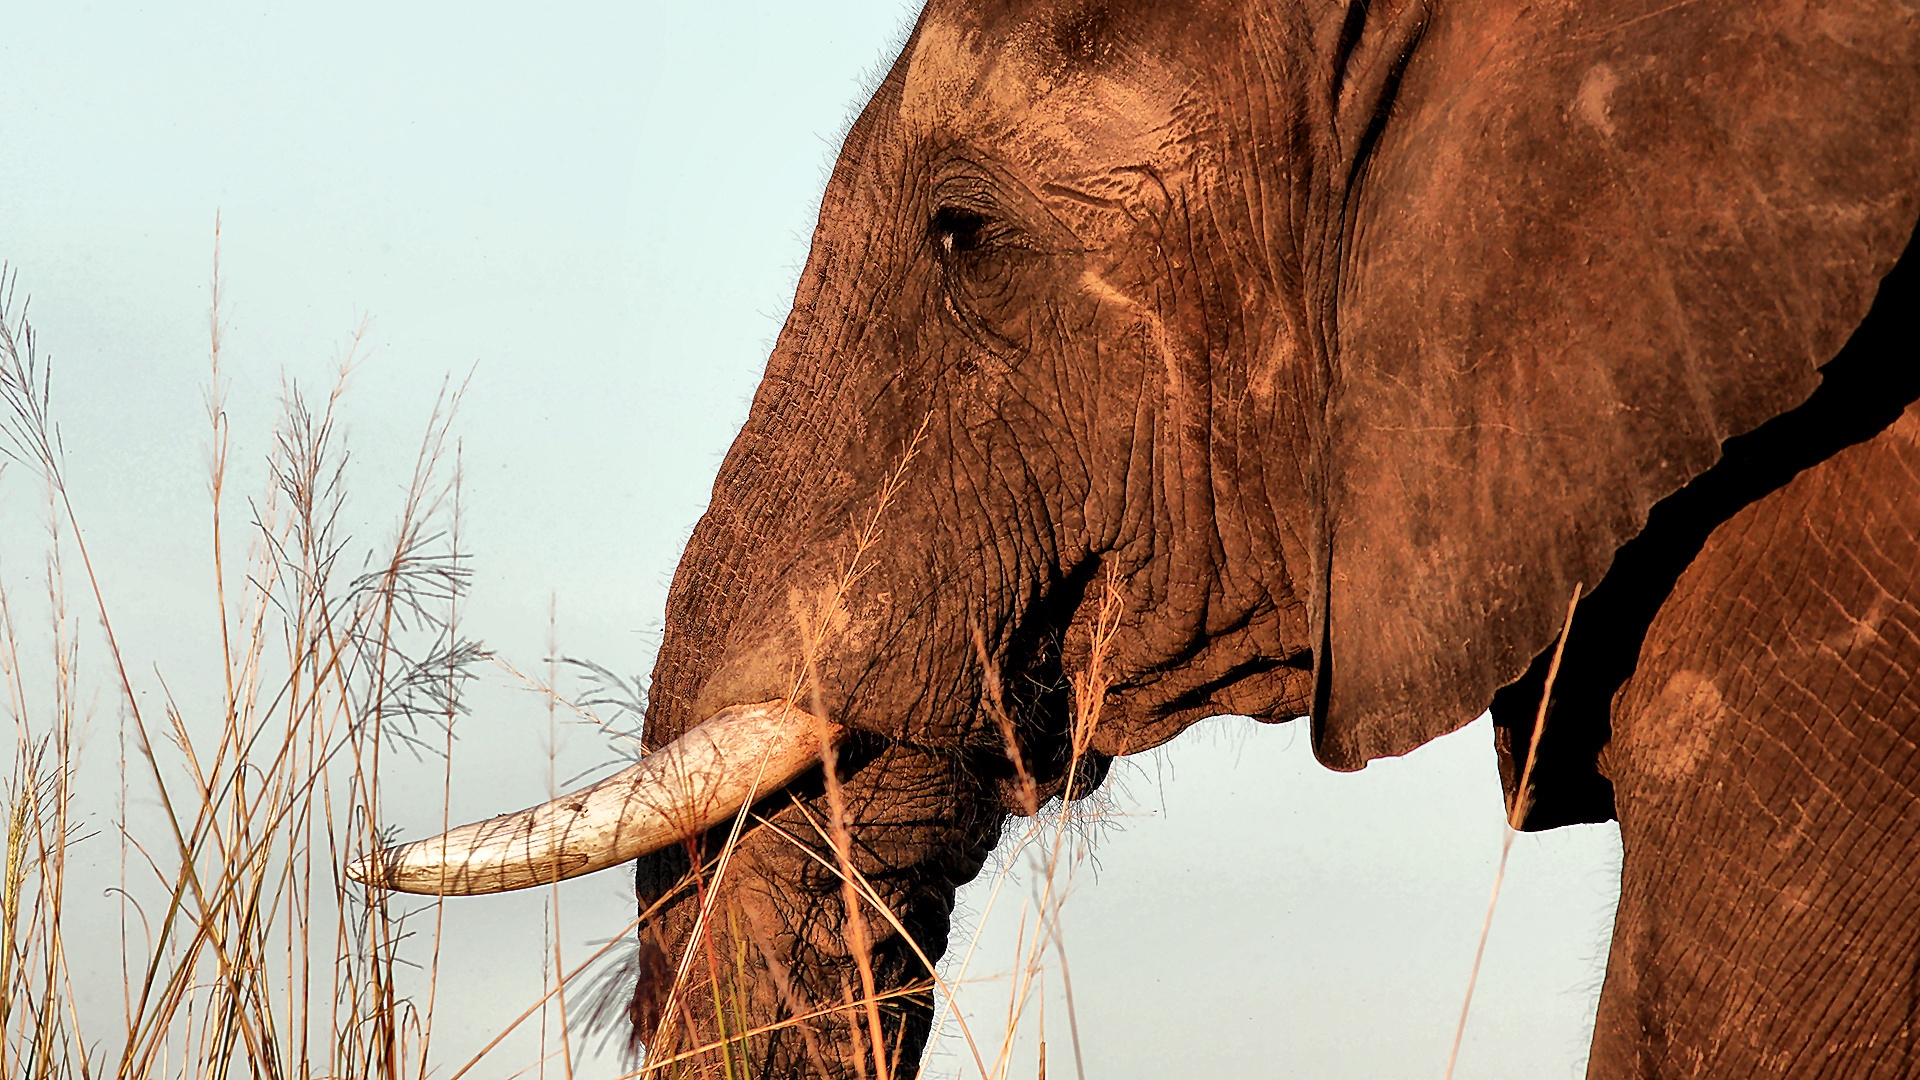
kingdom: Animalia
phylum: Chordata
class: Mammalia
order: Proboscidea
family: Elephantidae
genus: Loxodonta
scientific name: Loxodonta africana
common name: African elephant
